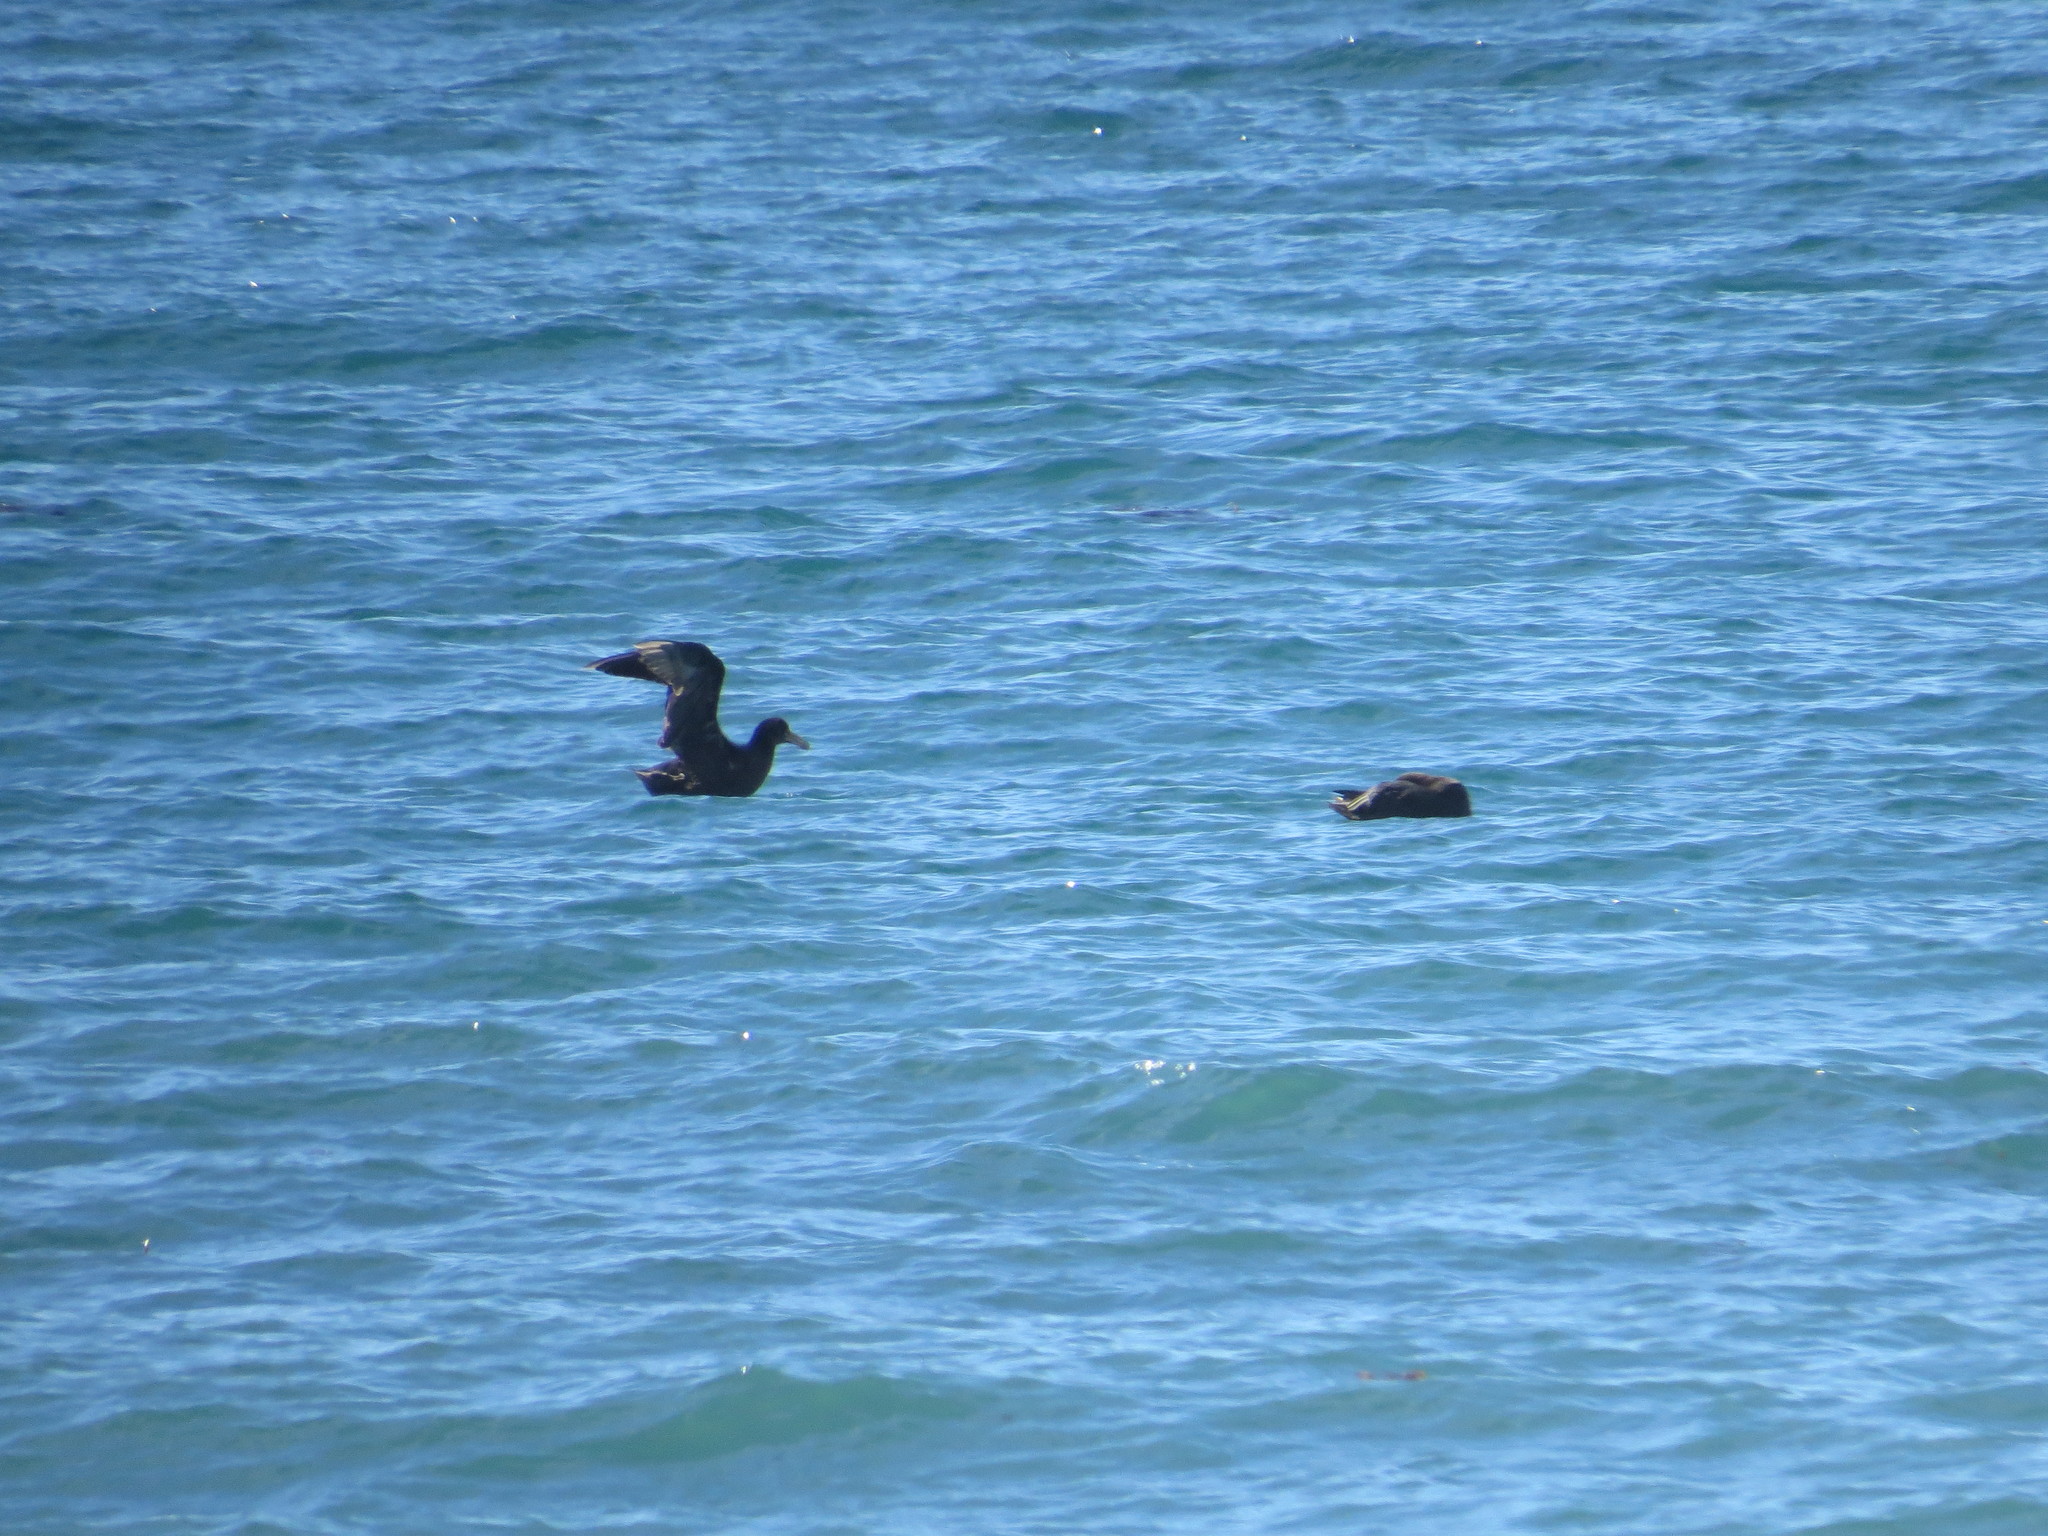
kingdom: Animalia
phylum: Chordata
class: Aves
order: Procellariiformes
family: Procellariidae
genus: Macronectes
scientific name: Macronectes giganteus
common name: Southern giant petrel
